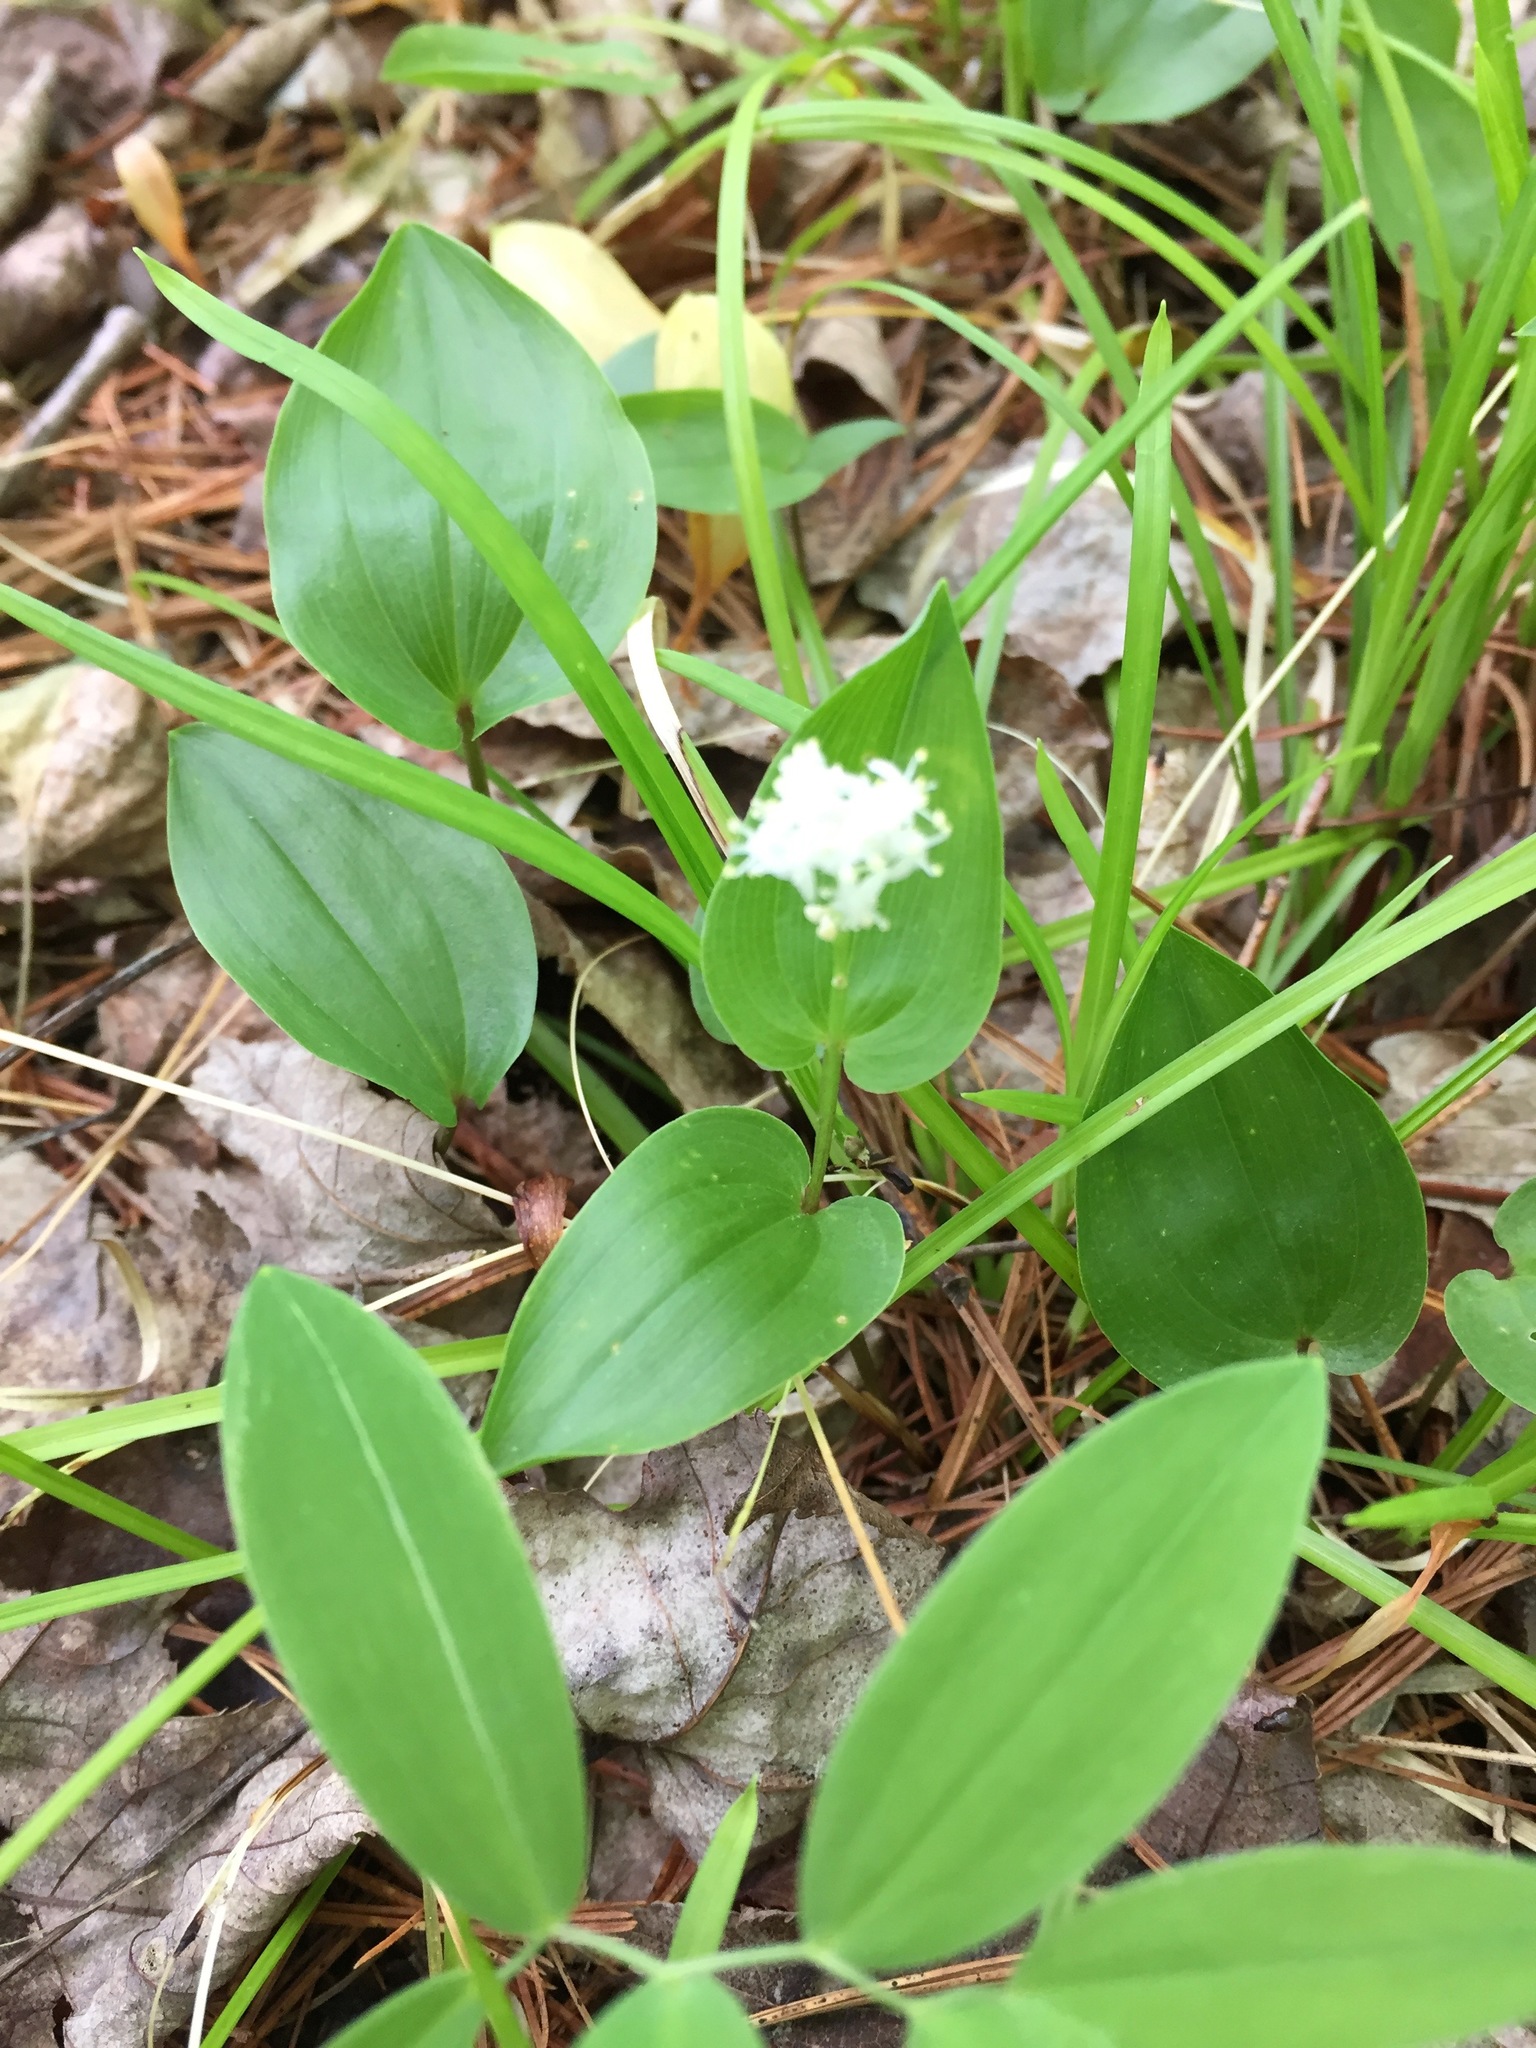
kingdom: Plantae
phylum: Tracheophyta
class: Liliopsida
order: Asparagales
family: Asparagaceae
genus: Maianthemum
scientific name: Maianthemum canadense
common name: False lily-of-the-valley
